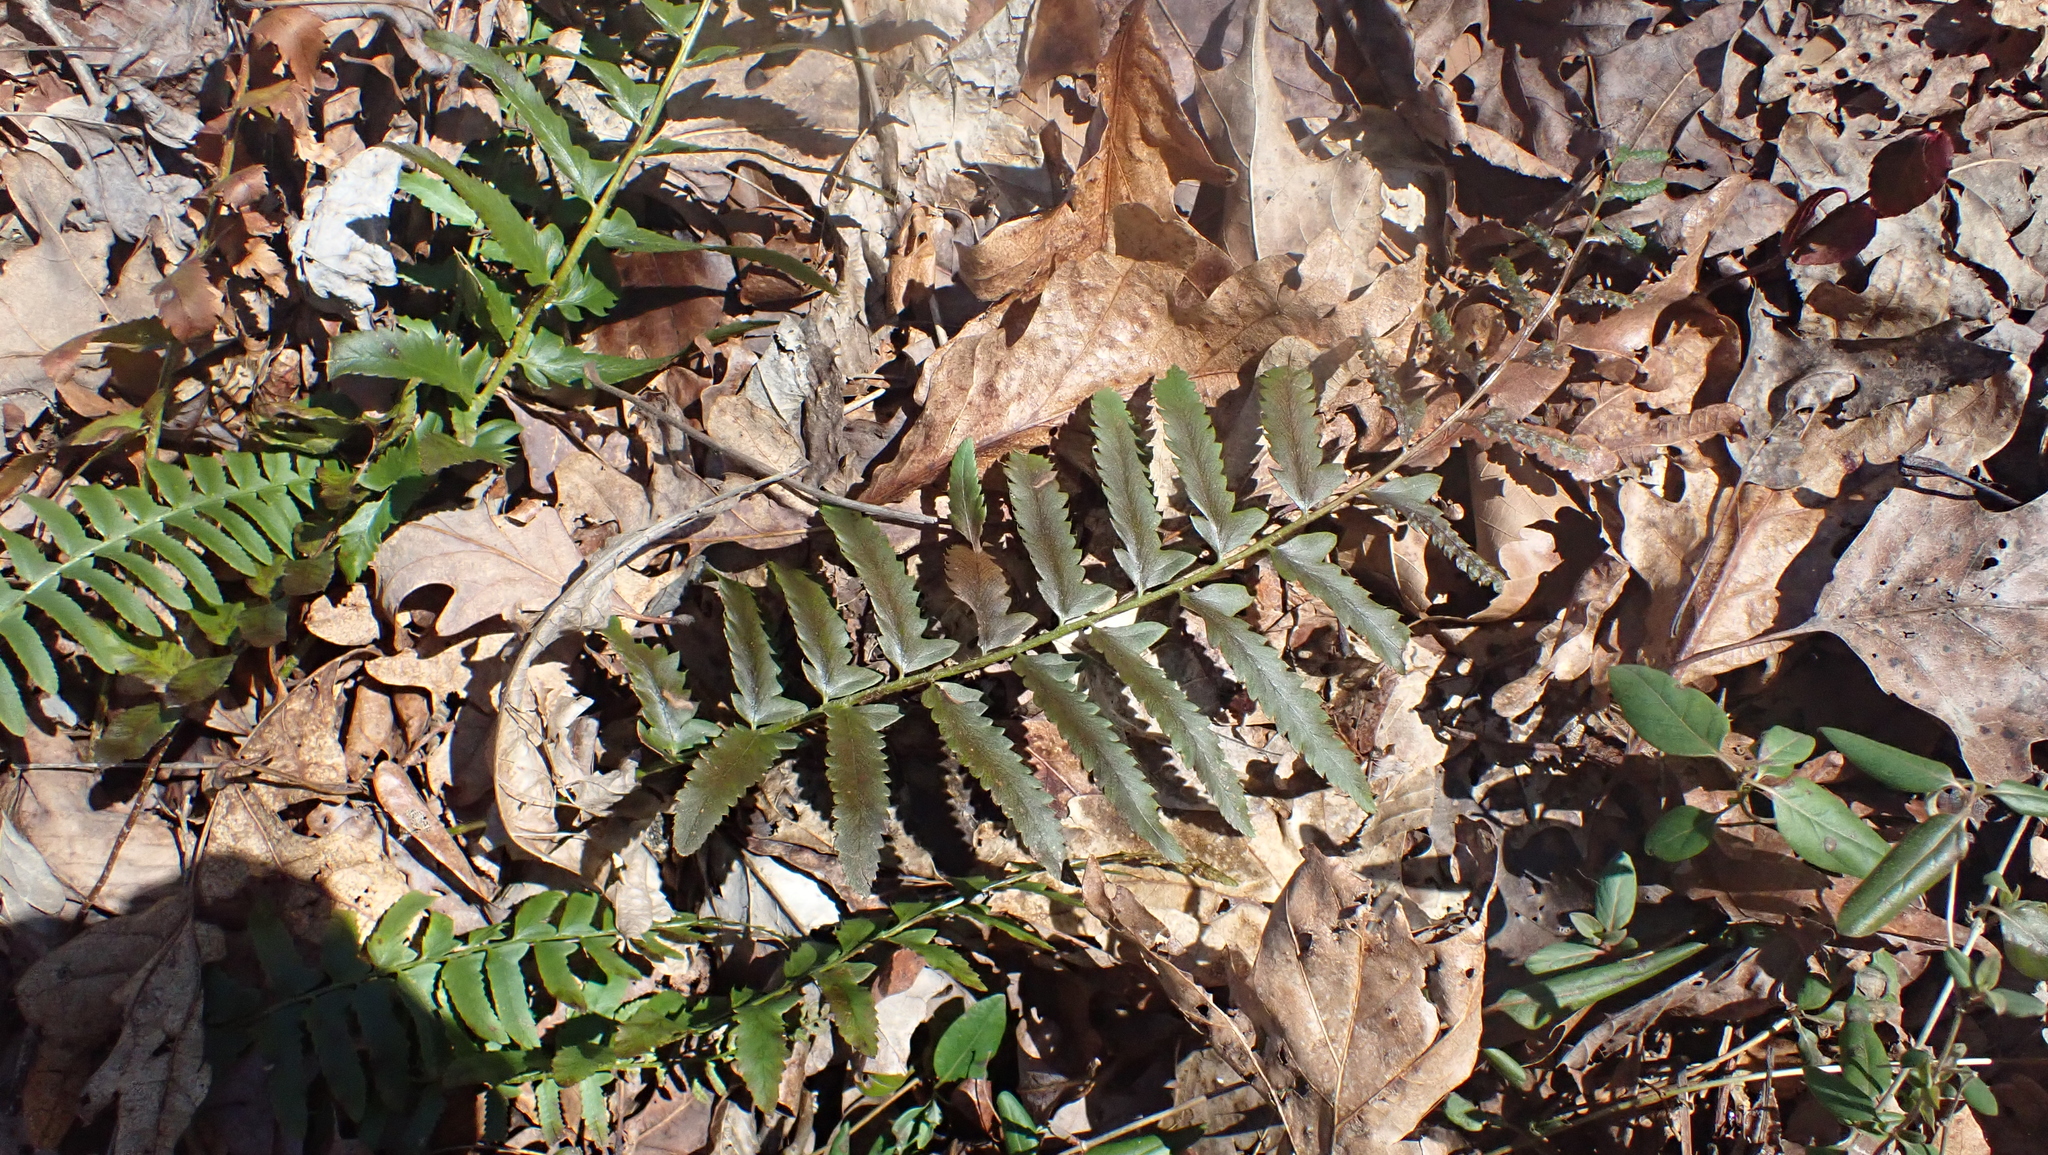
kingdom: Plantae
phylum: Tracheophyta
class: Polypodiopsida
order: Polypodiales
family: Dryopteridaceae
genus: Polystichum
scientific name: Polystichum acrostichoides
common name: Christmas fern
